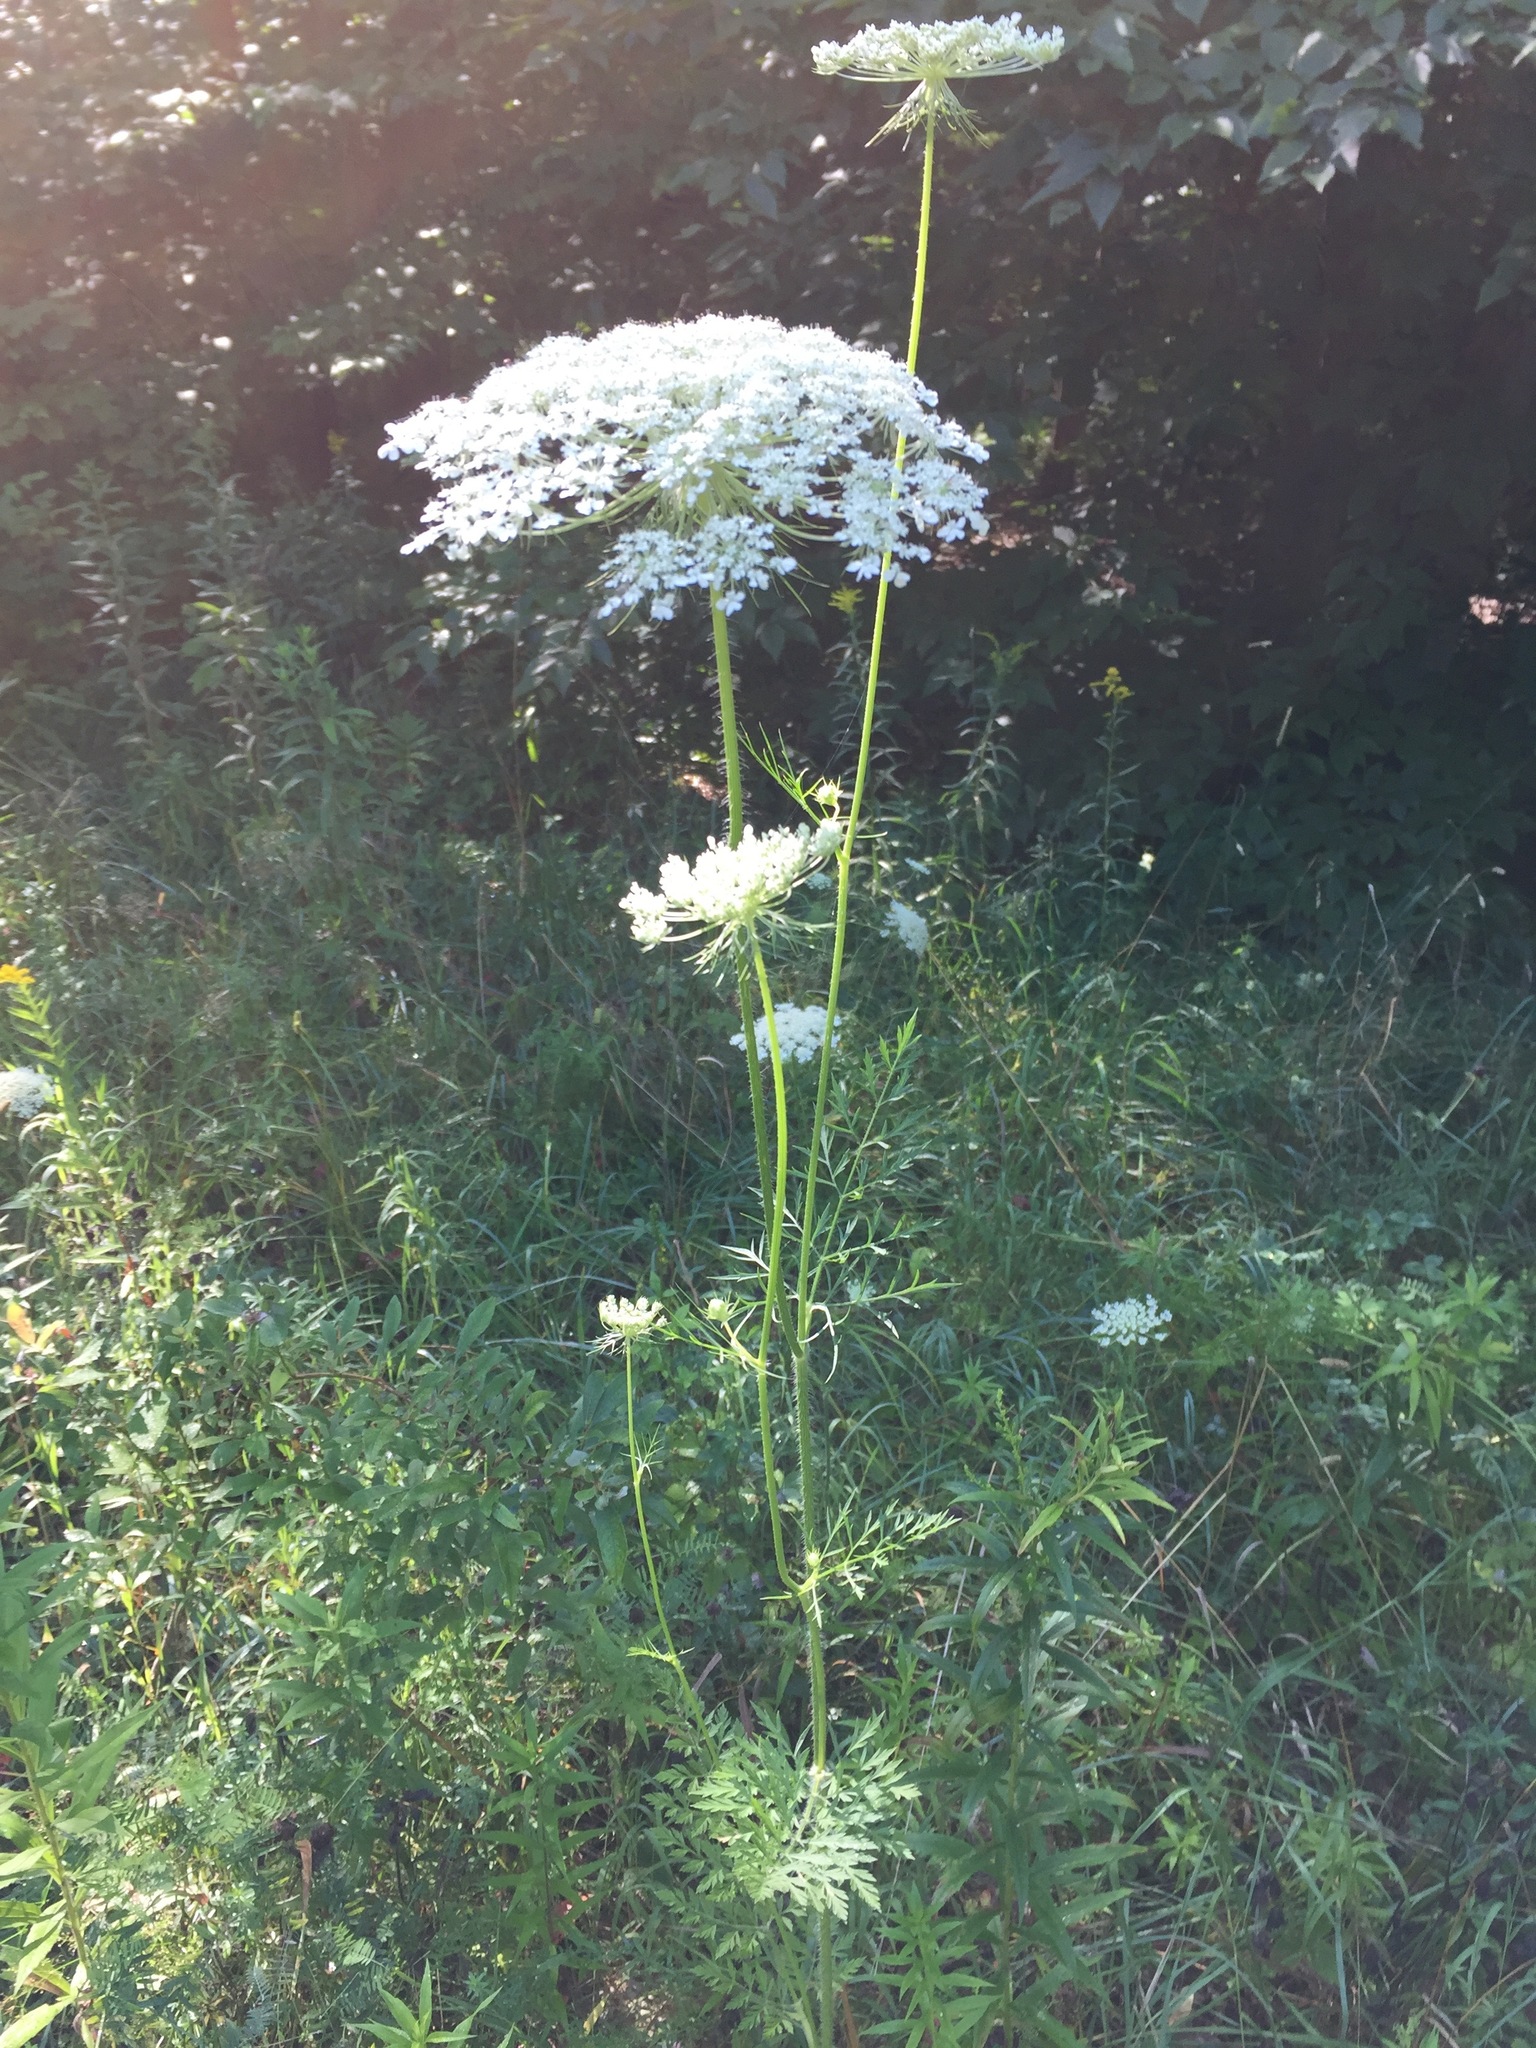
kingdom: Plantae
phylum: Tracheophyta
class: Magnoliopsida
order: Apiales
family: Apiaceae
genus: Daucus
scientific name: Daucus carota
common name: Wild carrot
